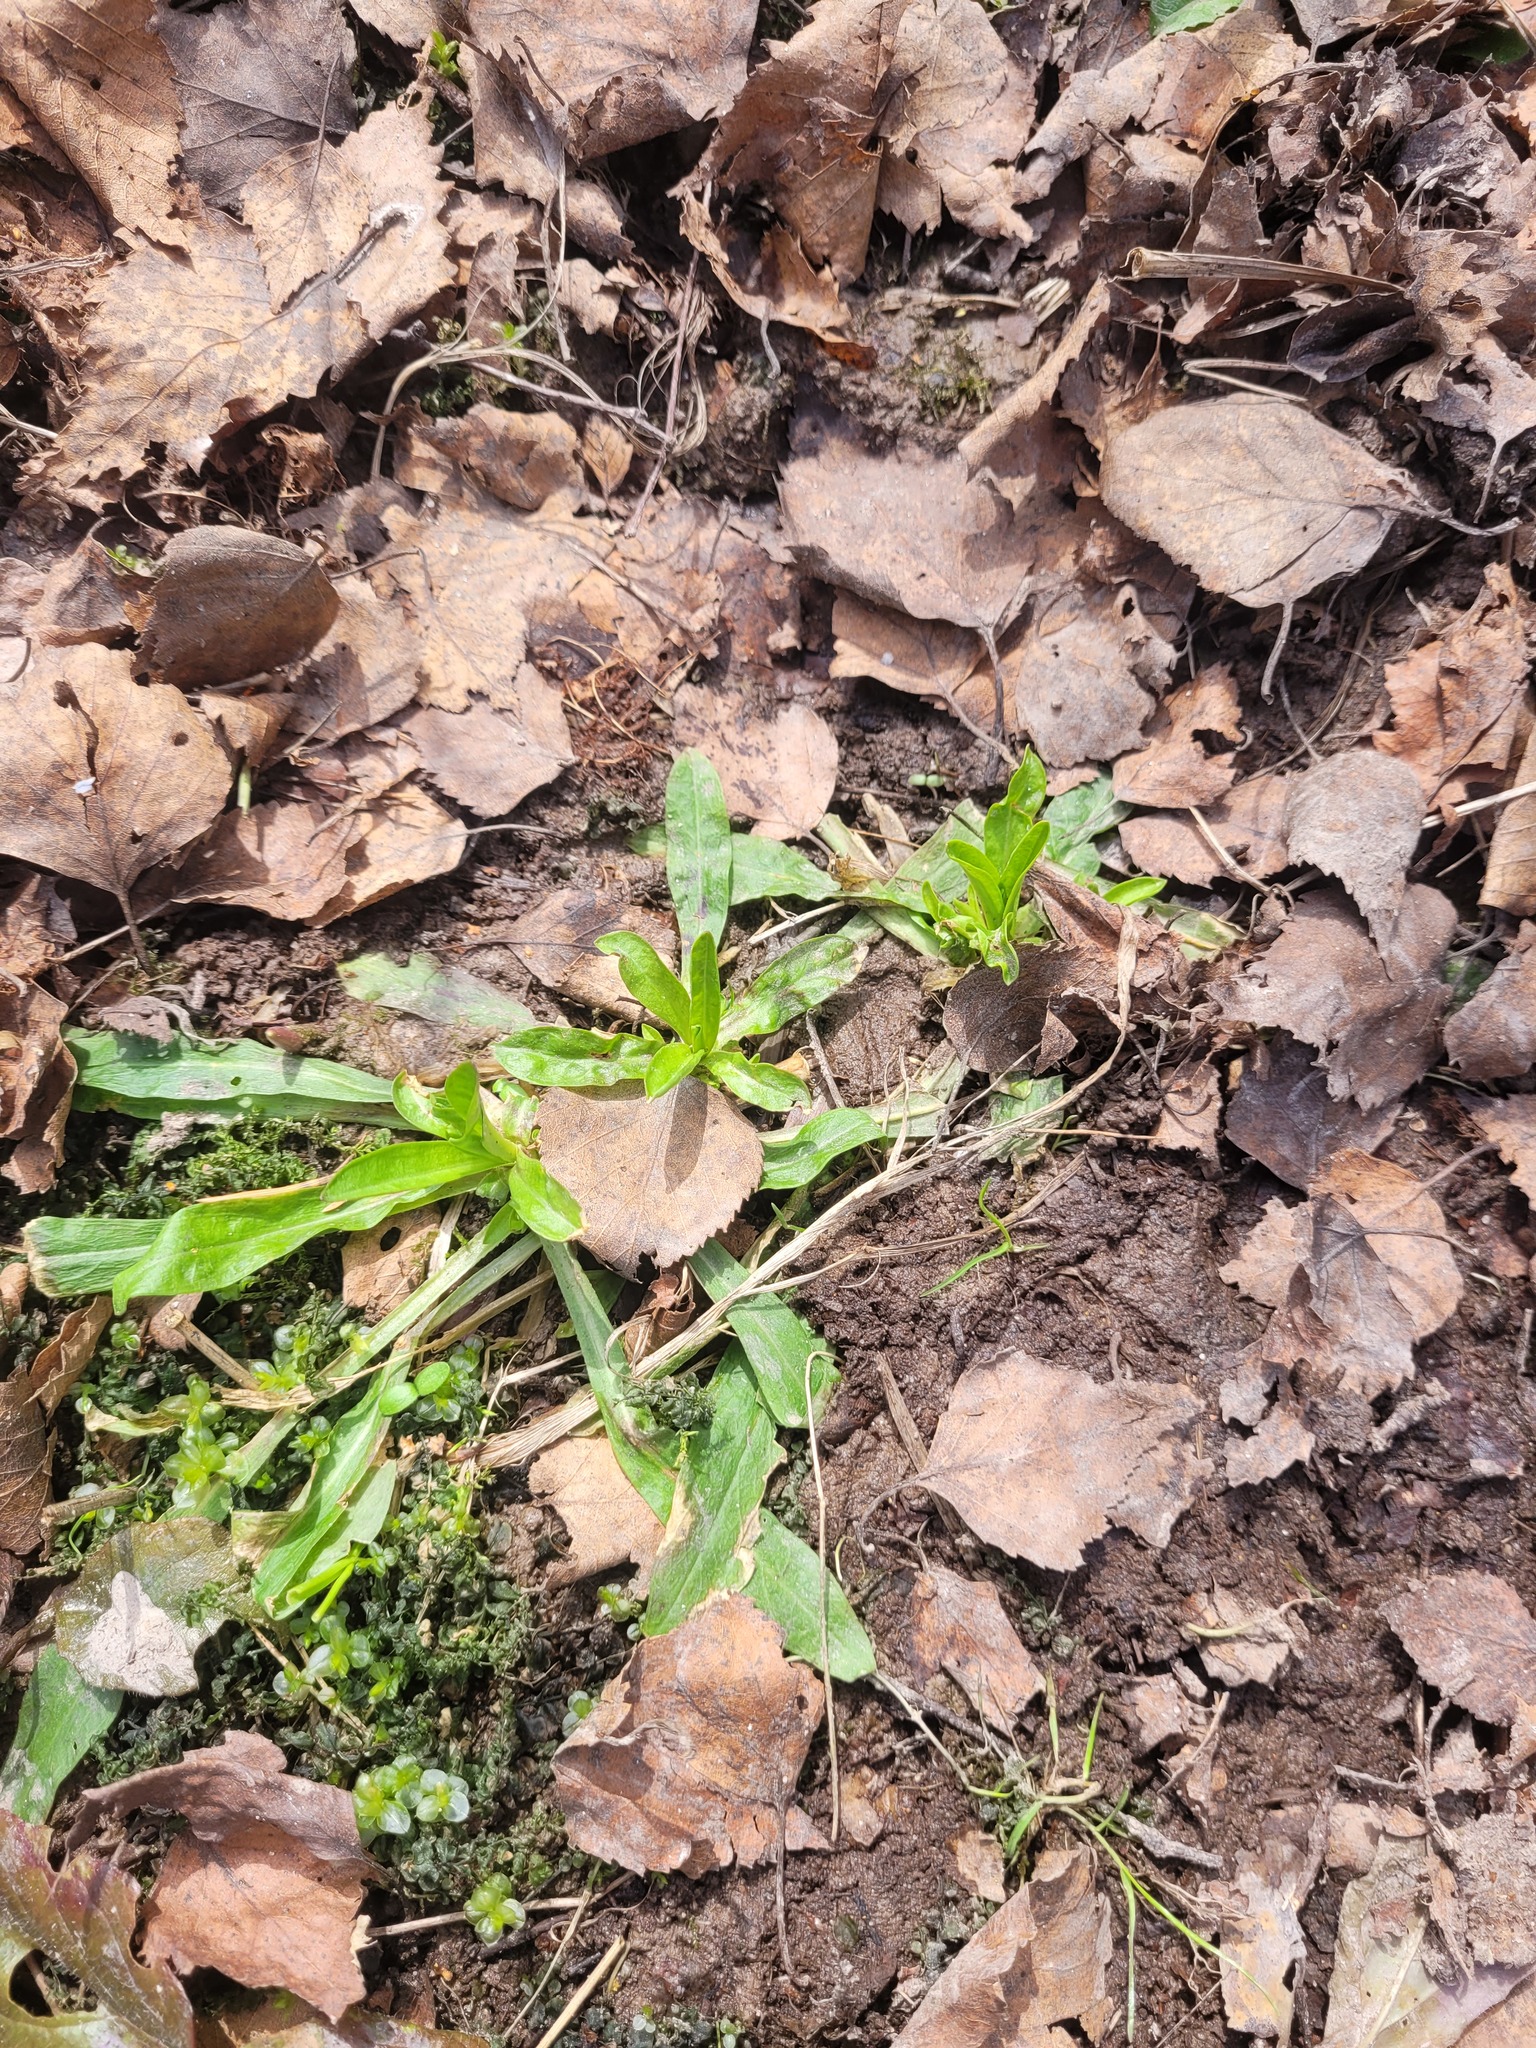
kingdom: Plantae
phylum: Tracheophyta
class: Magnoliopsida
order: Caryophyllales
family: Caryophyllaceae
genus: Silene
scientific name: Silene flos-cuculi
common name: Ragged-robin
